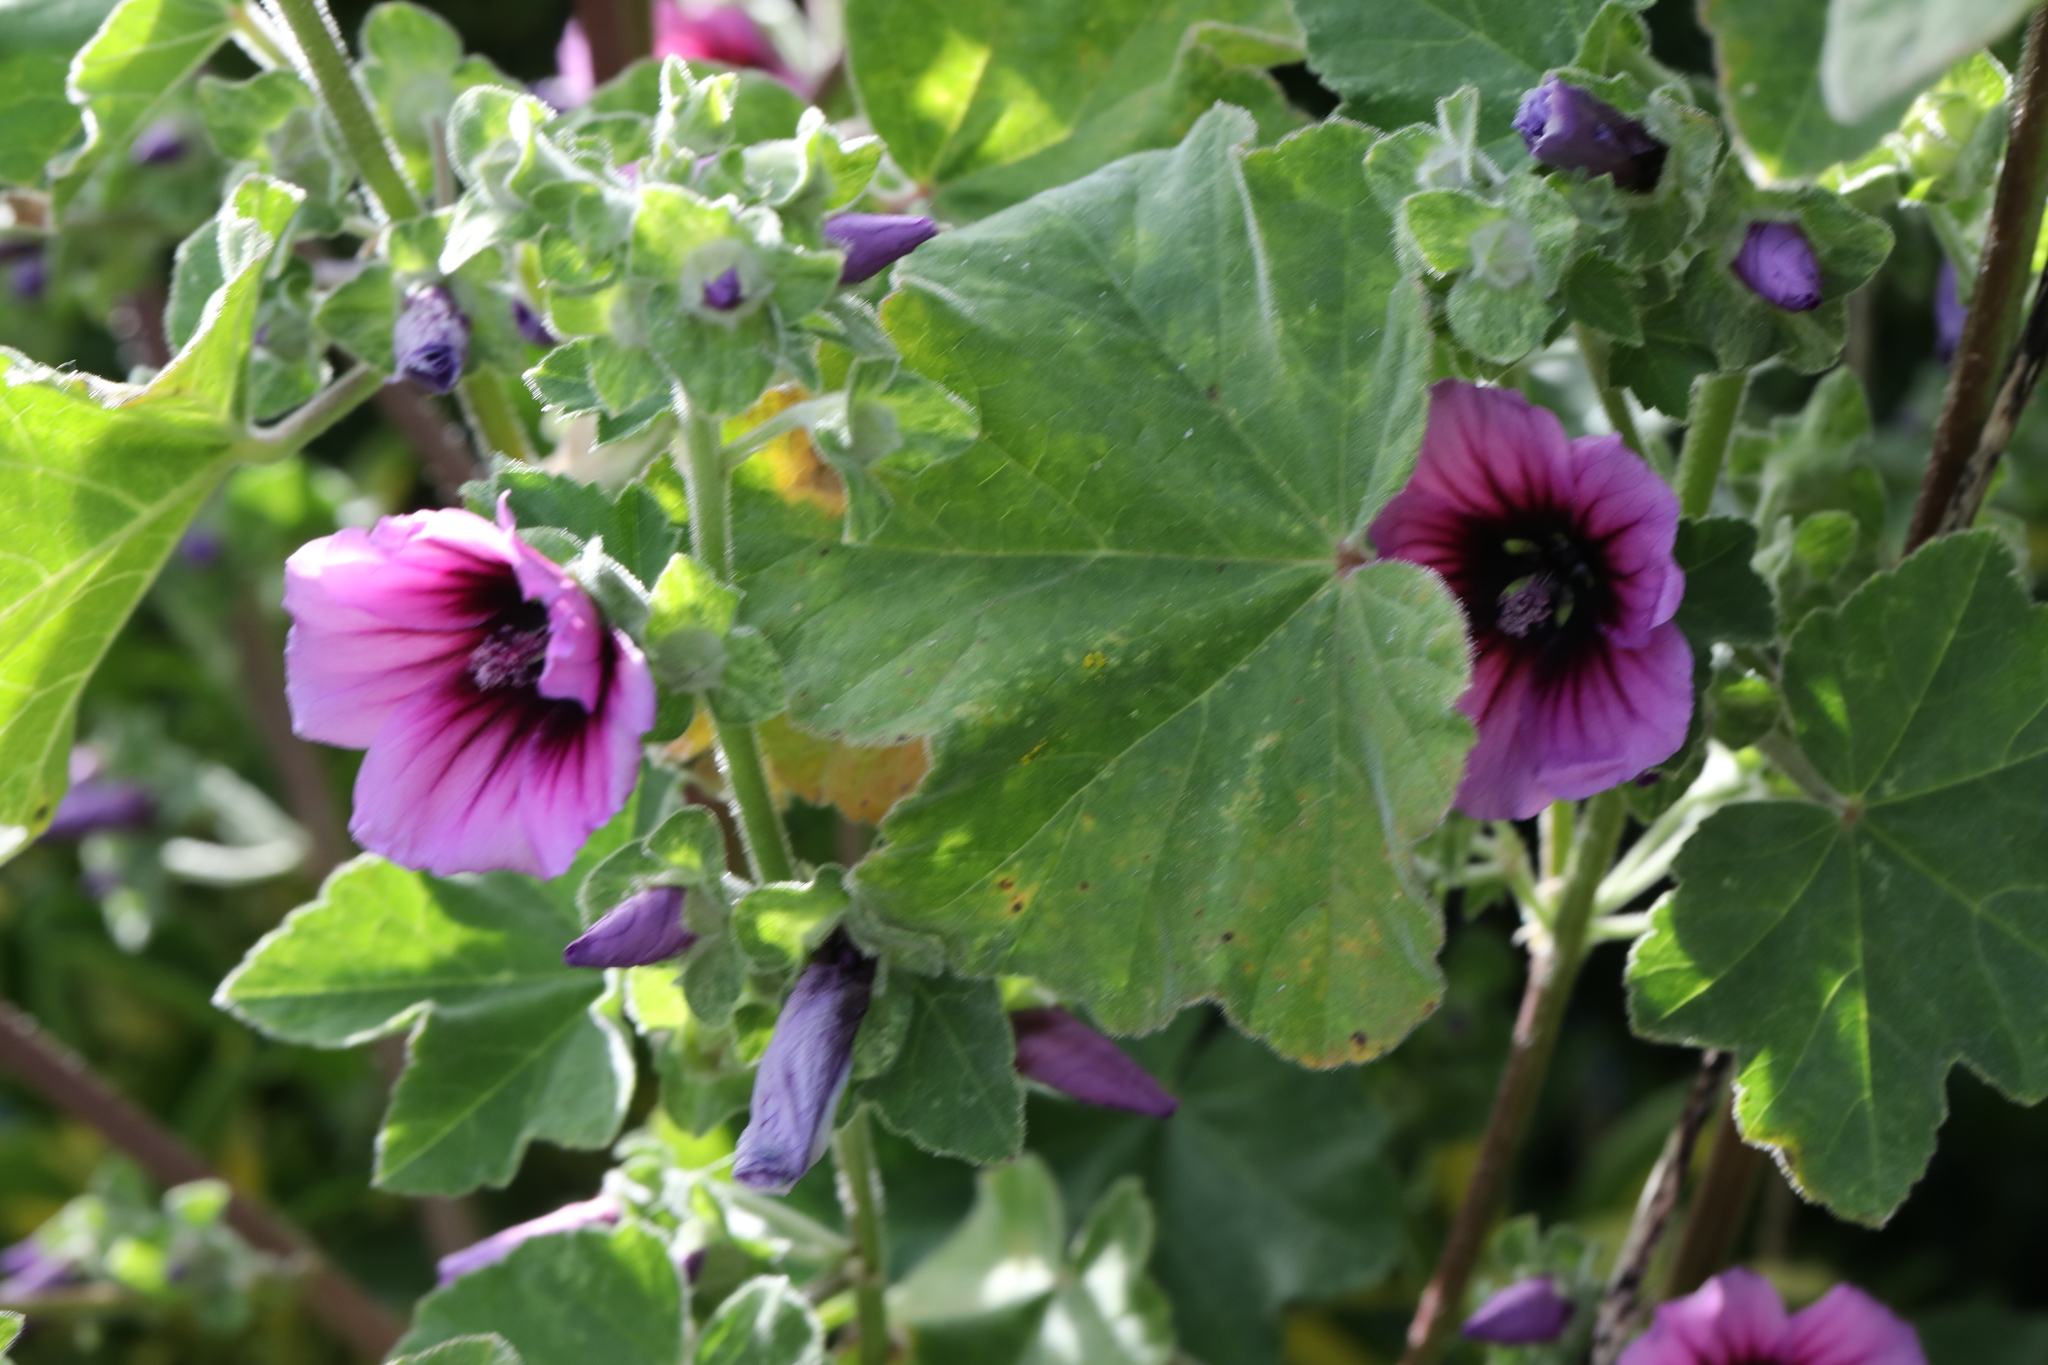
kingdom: Plantae
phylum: Tracheophyta
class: Magnoliopsida
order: Malvales
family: Malvaceae
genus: Malva
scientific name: Malva arborea
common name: Tree mallow
